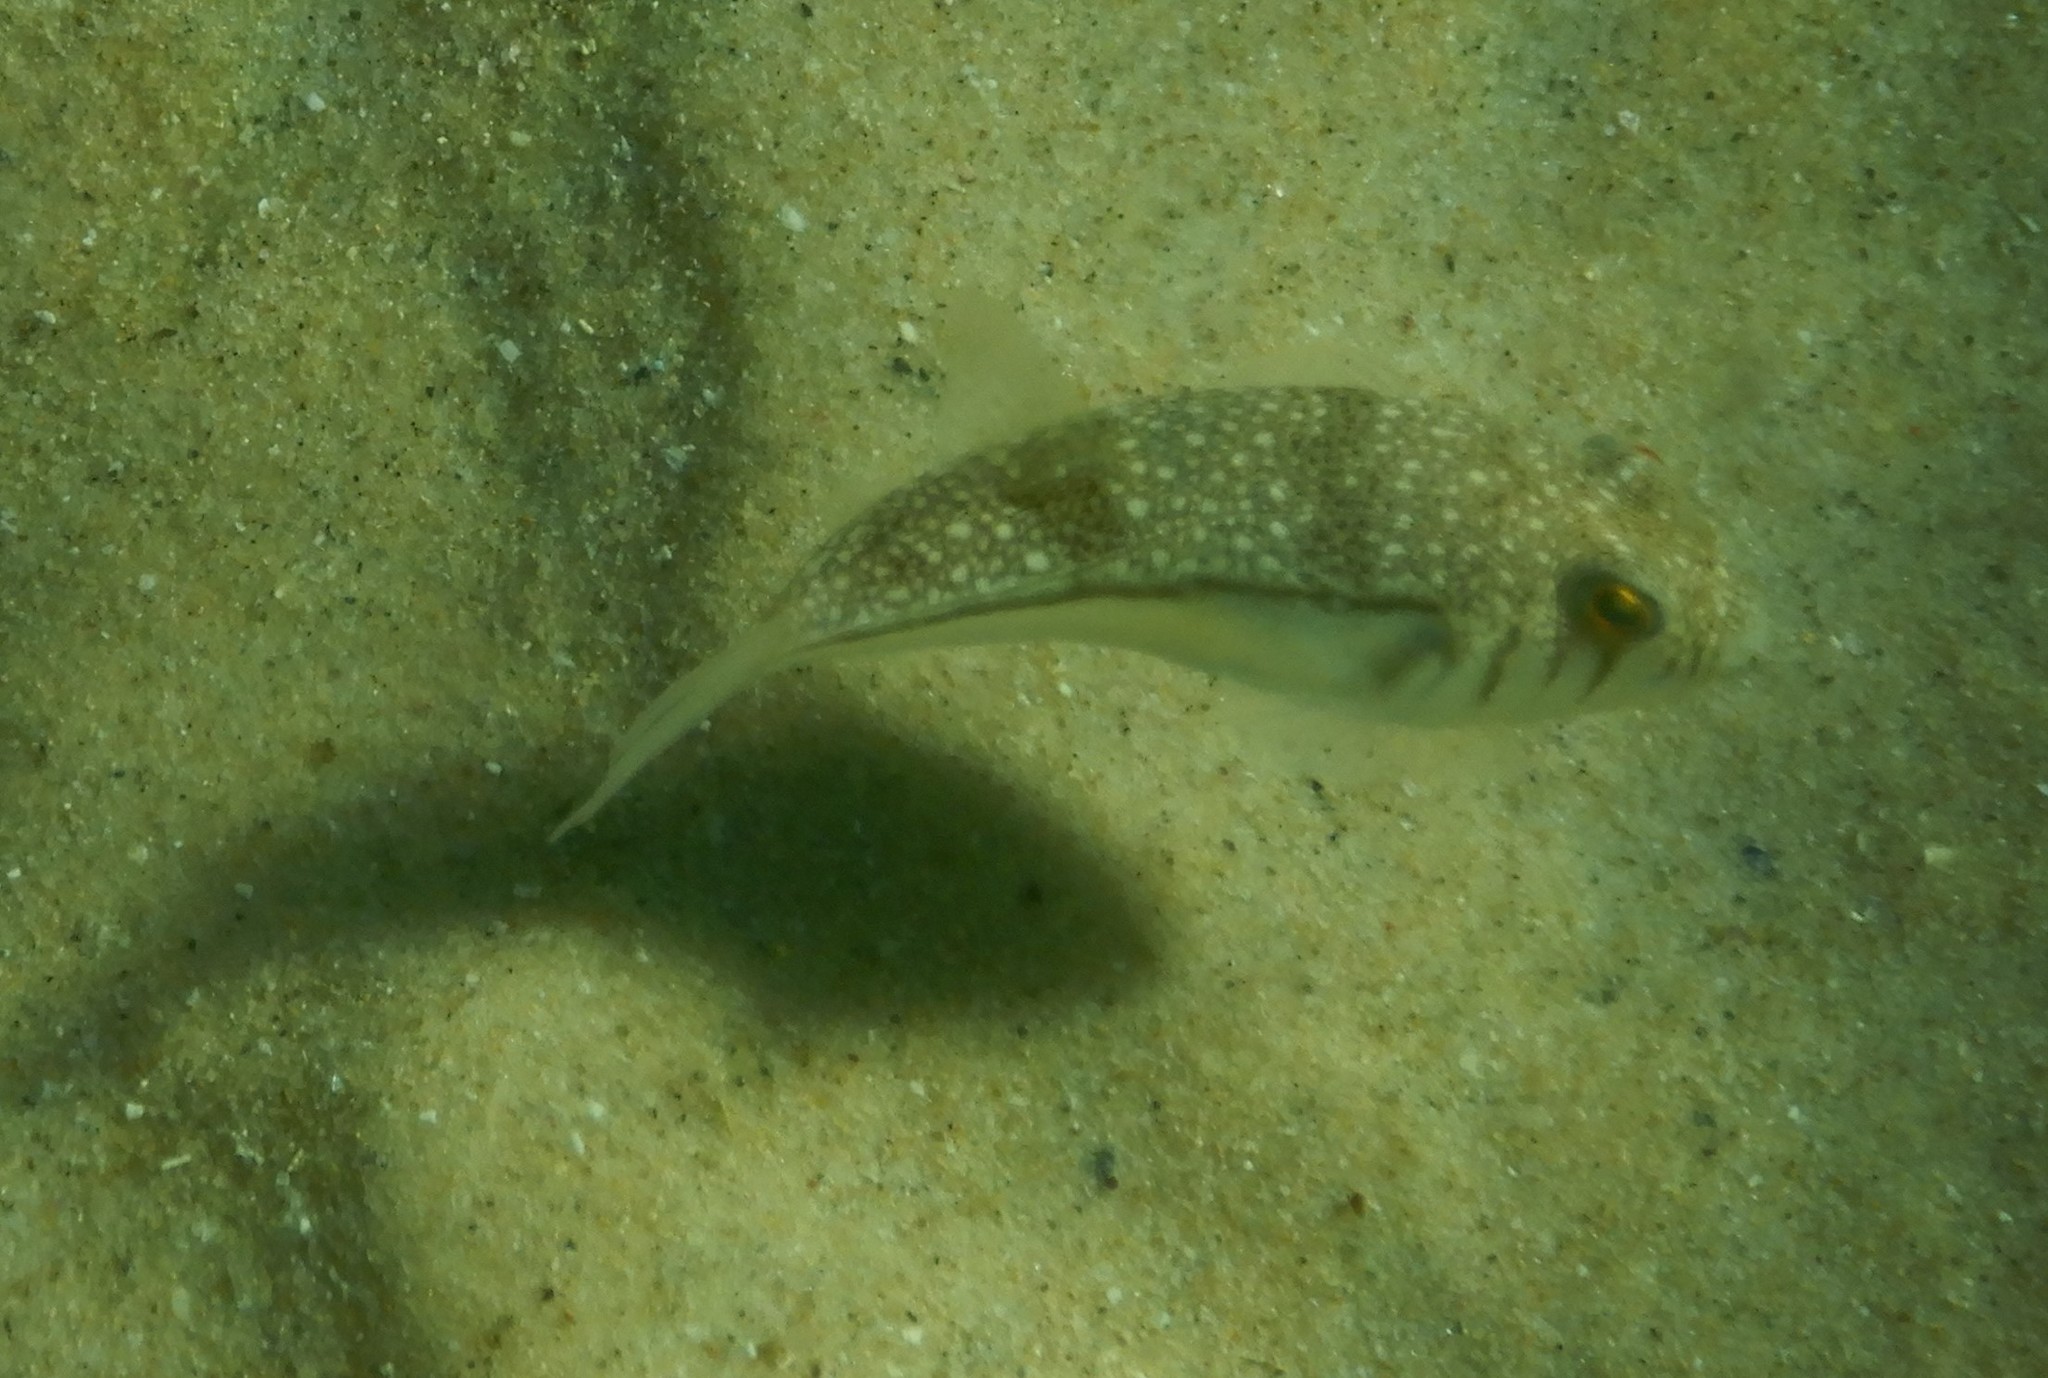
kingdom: Animalia
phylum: Chordata
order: Tetraodontiformes
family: Tetraodontidae
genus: Torquigener
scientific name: Torquigener pleurogramma
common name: Banded toadfish
